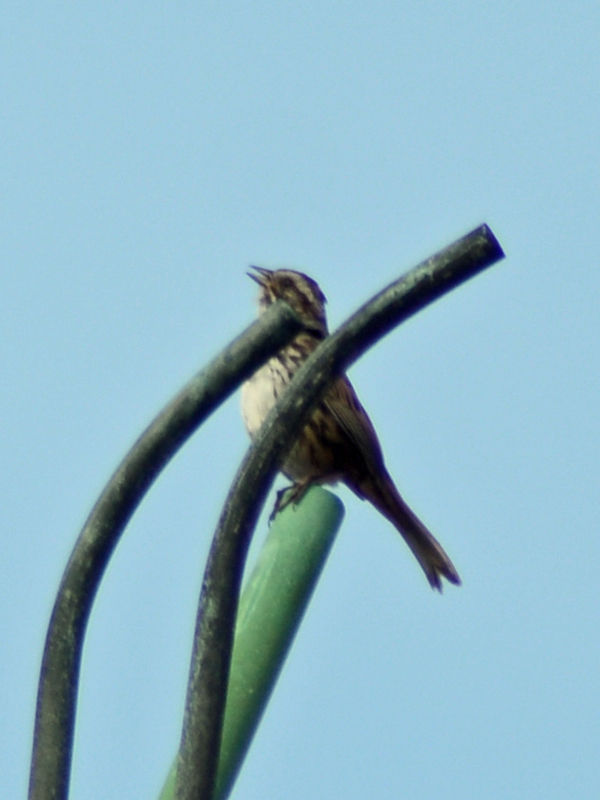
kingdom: Animalia
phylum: Chordata
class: Aves
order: Passeriformes
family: Passerellidae
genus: Melospiza
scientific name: Melospiza melodia
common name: Song sparrow
